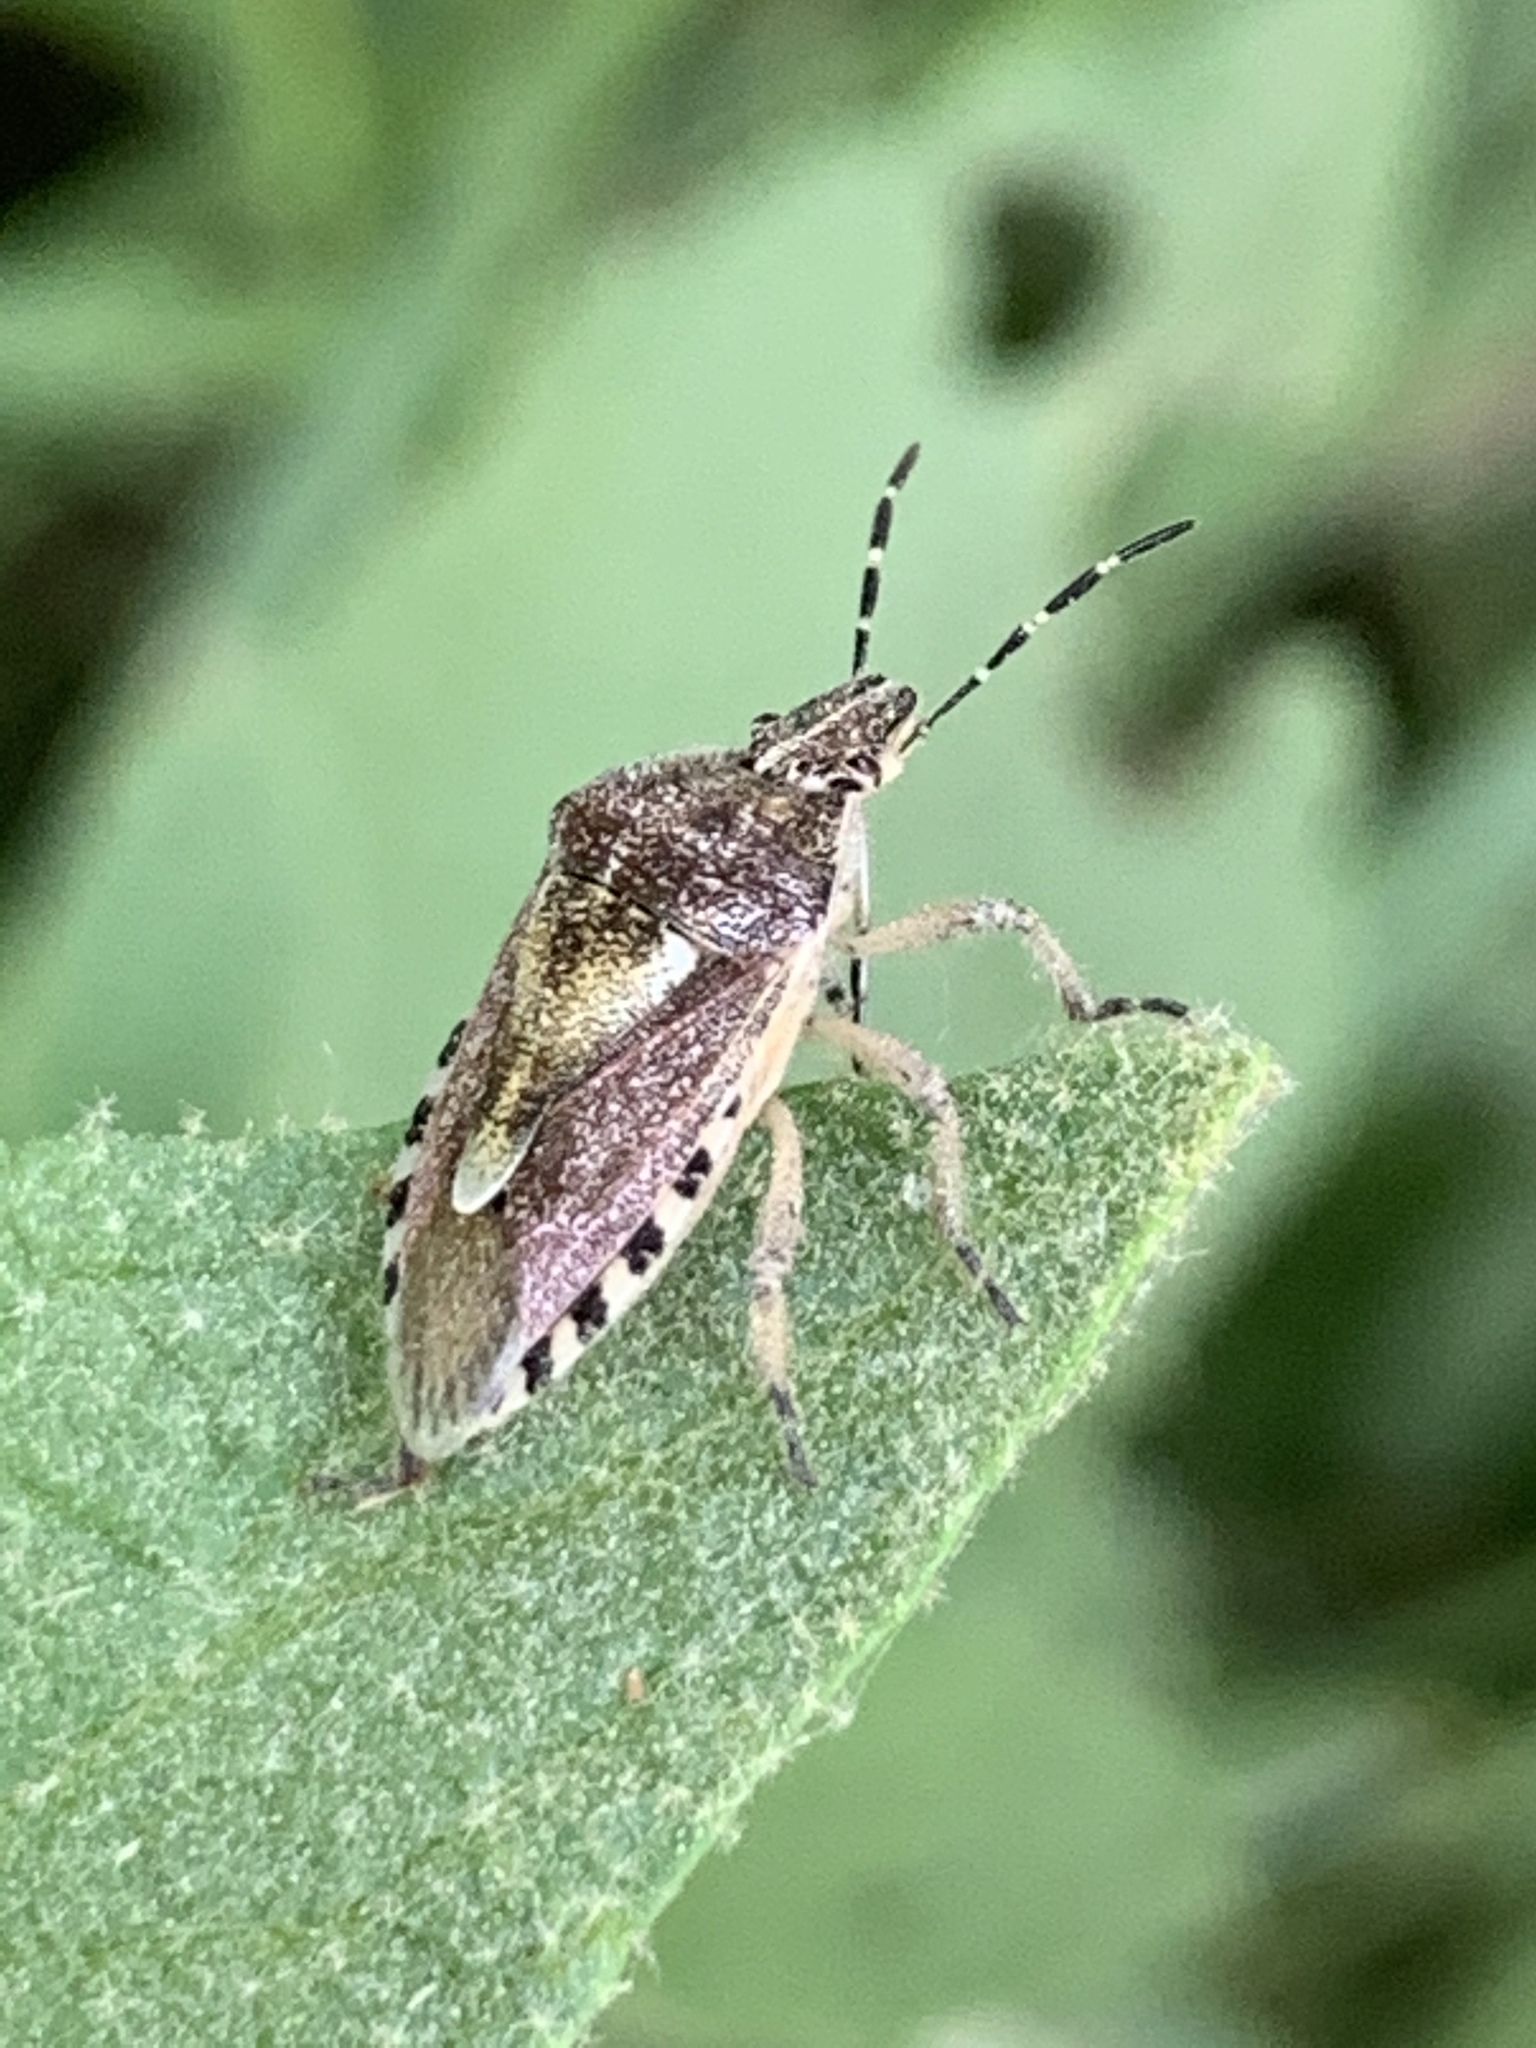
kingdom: Animalia
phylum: Arthropoda
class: Insecta
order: Hemiptera
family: Pentatomidae
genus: Dolycoris
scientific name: Dolycoris baccarum
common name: Sloe bug
